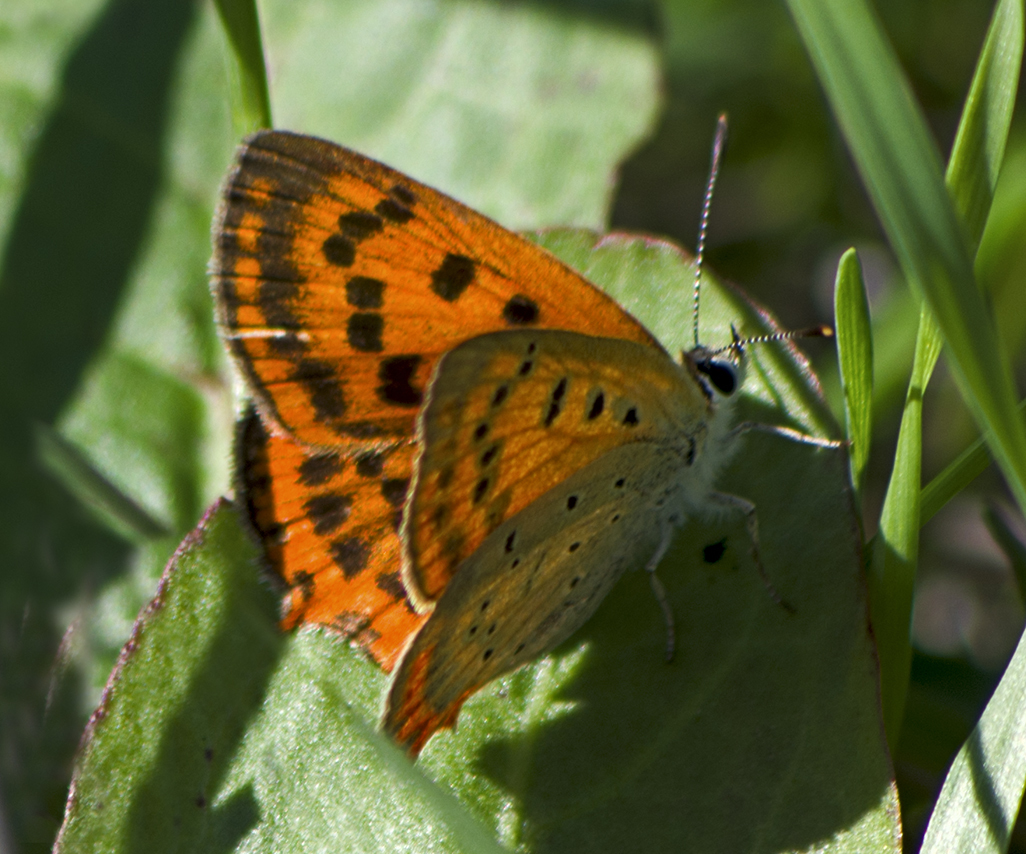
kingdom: Animalia
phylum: Arthropoda
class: Insecta
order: Lepidoptera
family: Lycaenidae
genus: Polyommatus
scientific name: Polyommatus ottomanus
